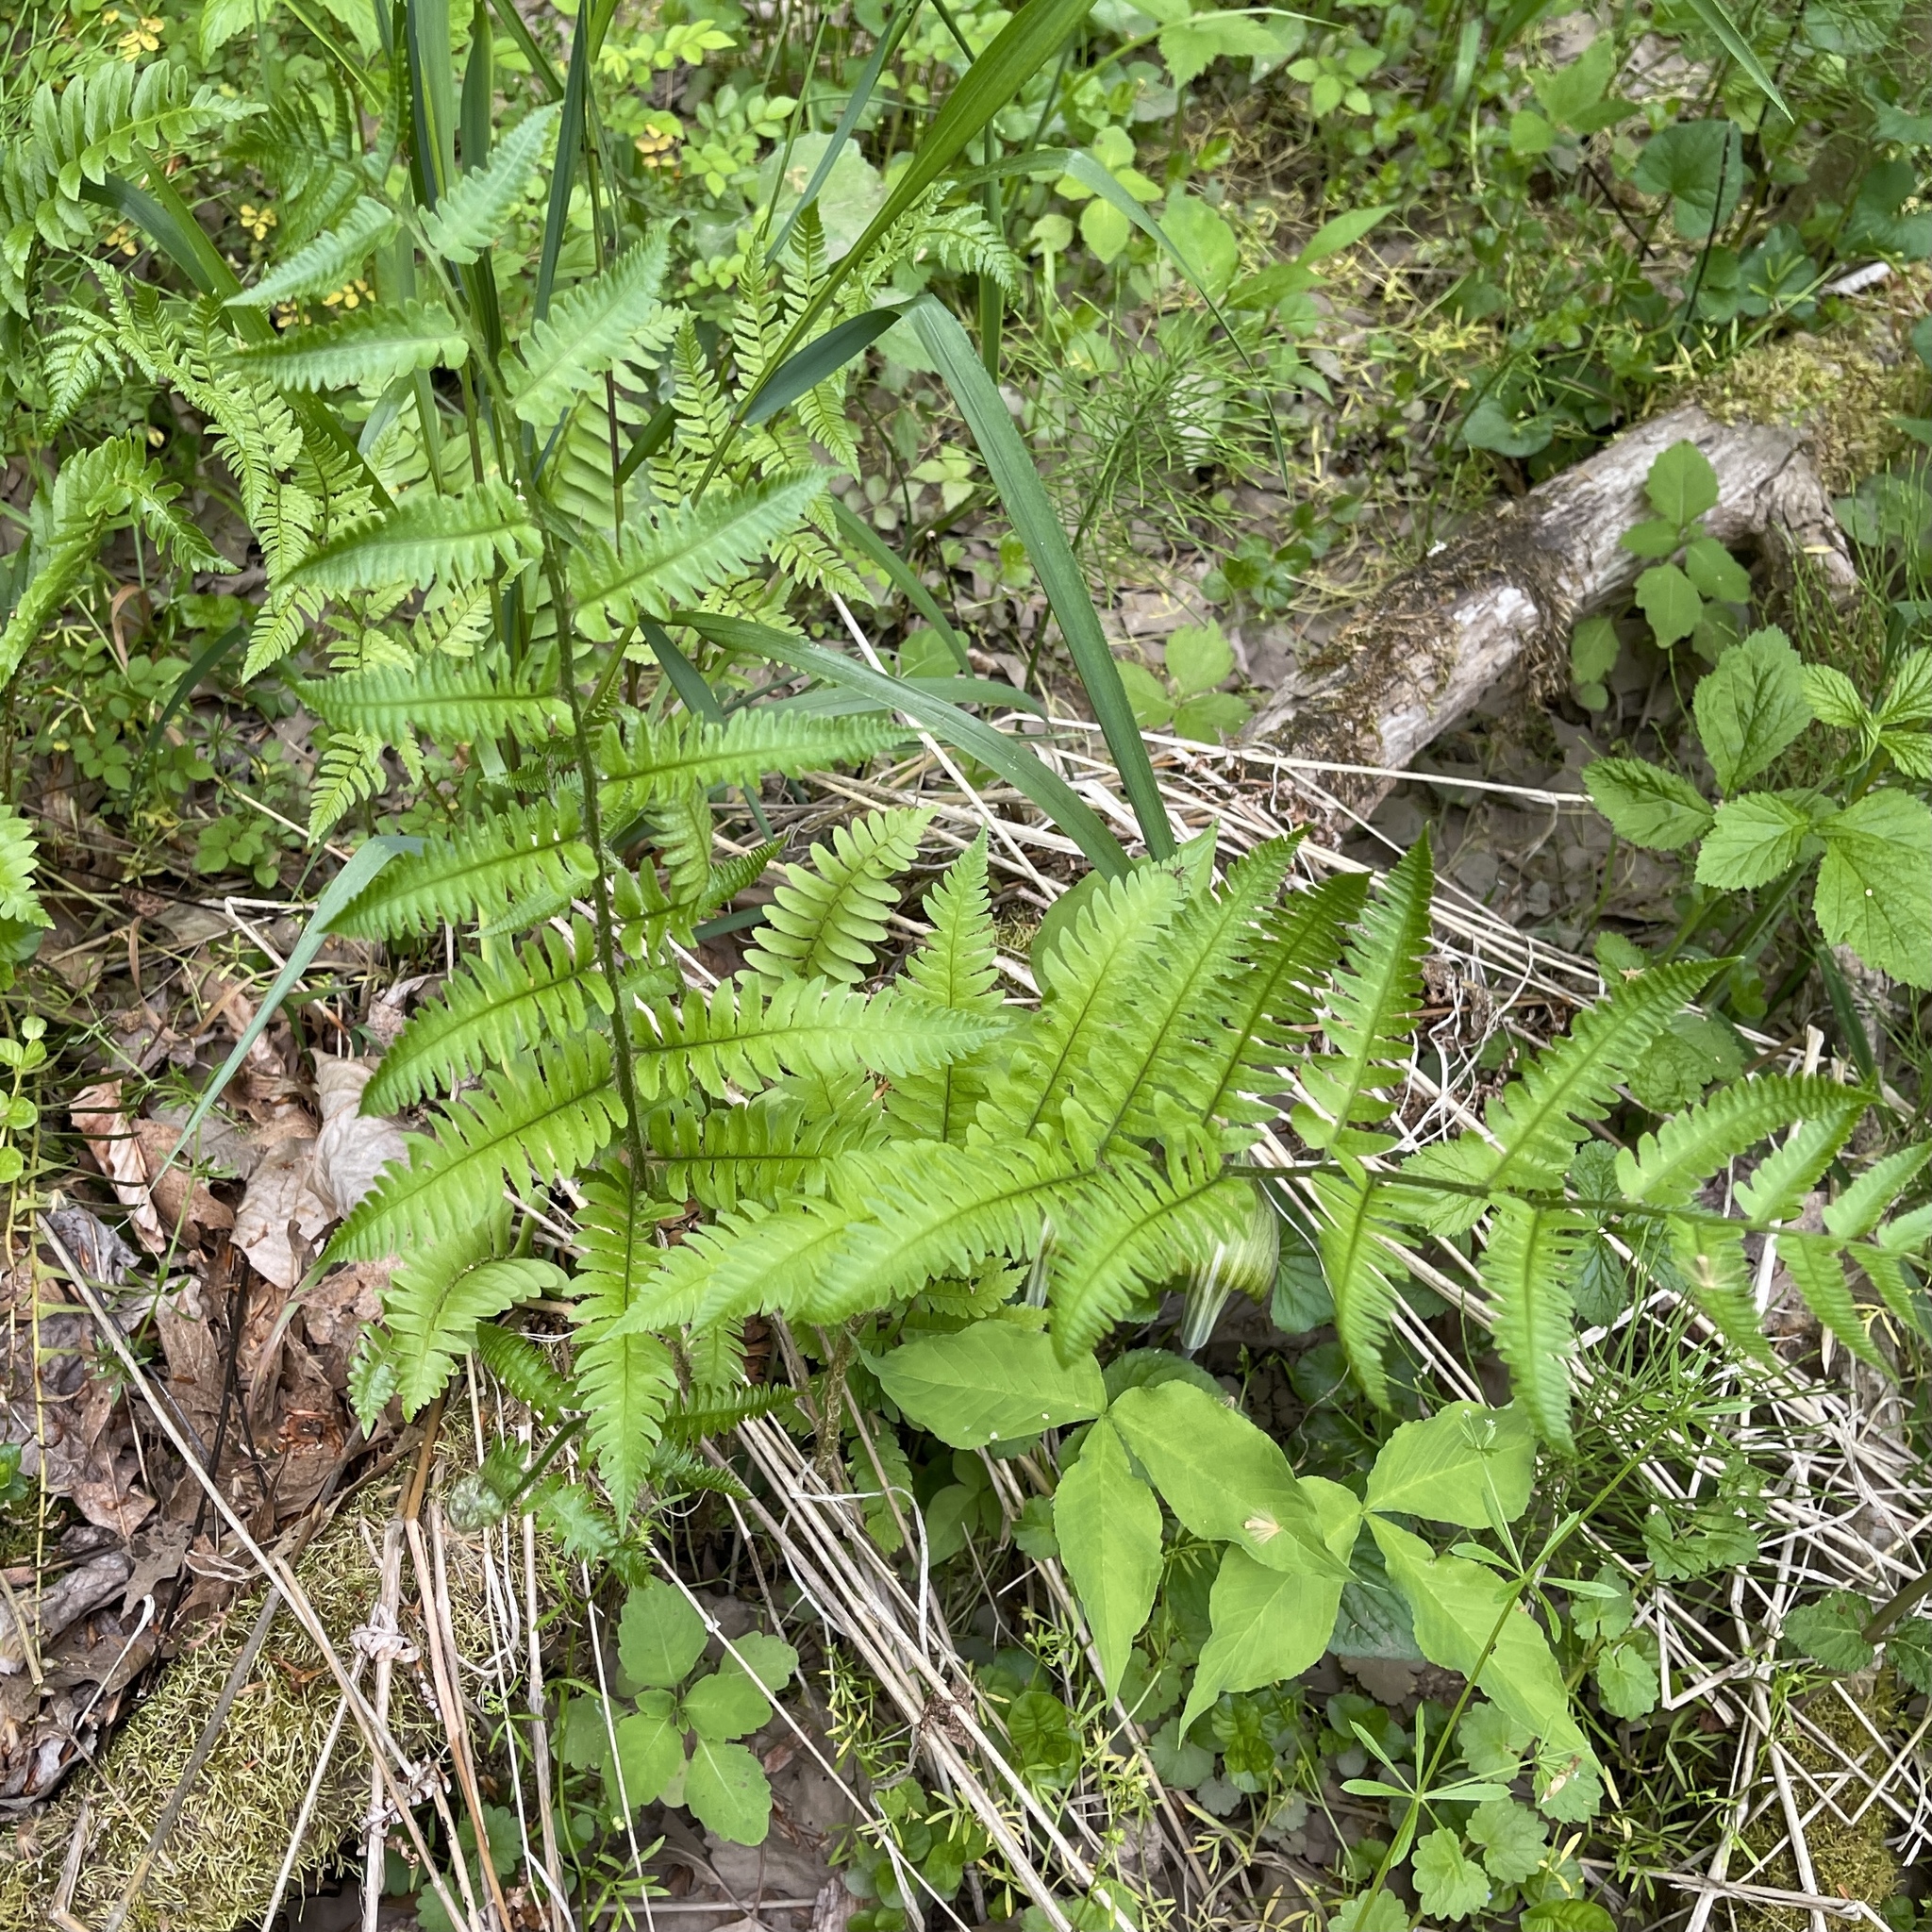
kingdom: Plantae
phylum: Tracheophyta
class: Polypodiopsida
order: Polypodiales
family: Dryopteridaceae
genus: Dryopteris
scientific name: Dryopteris goldieana
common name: Goldie's fern
